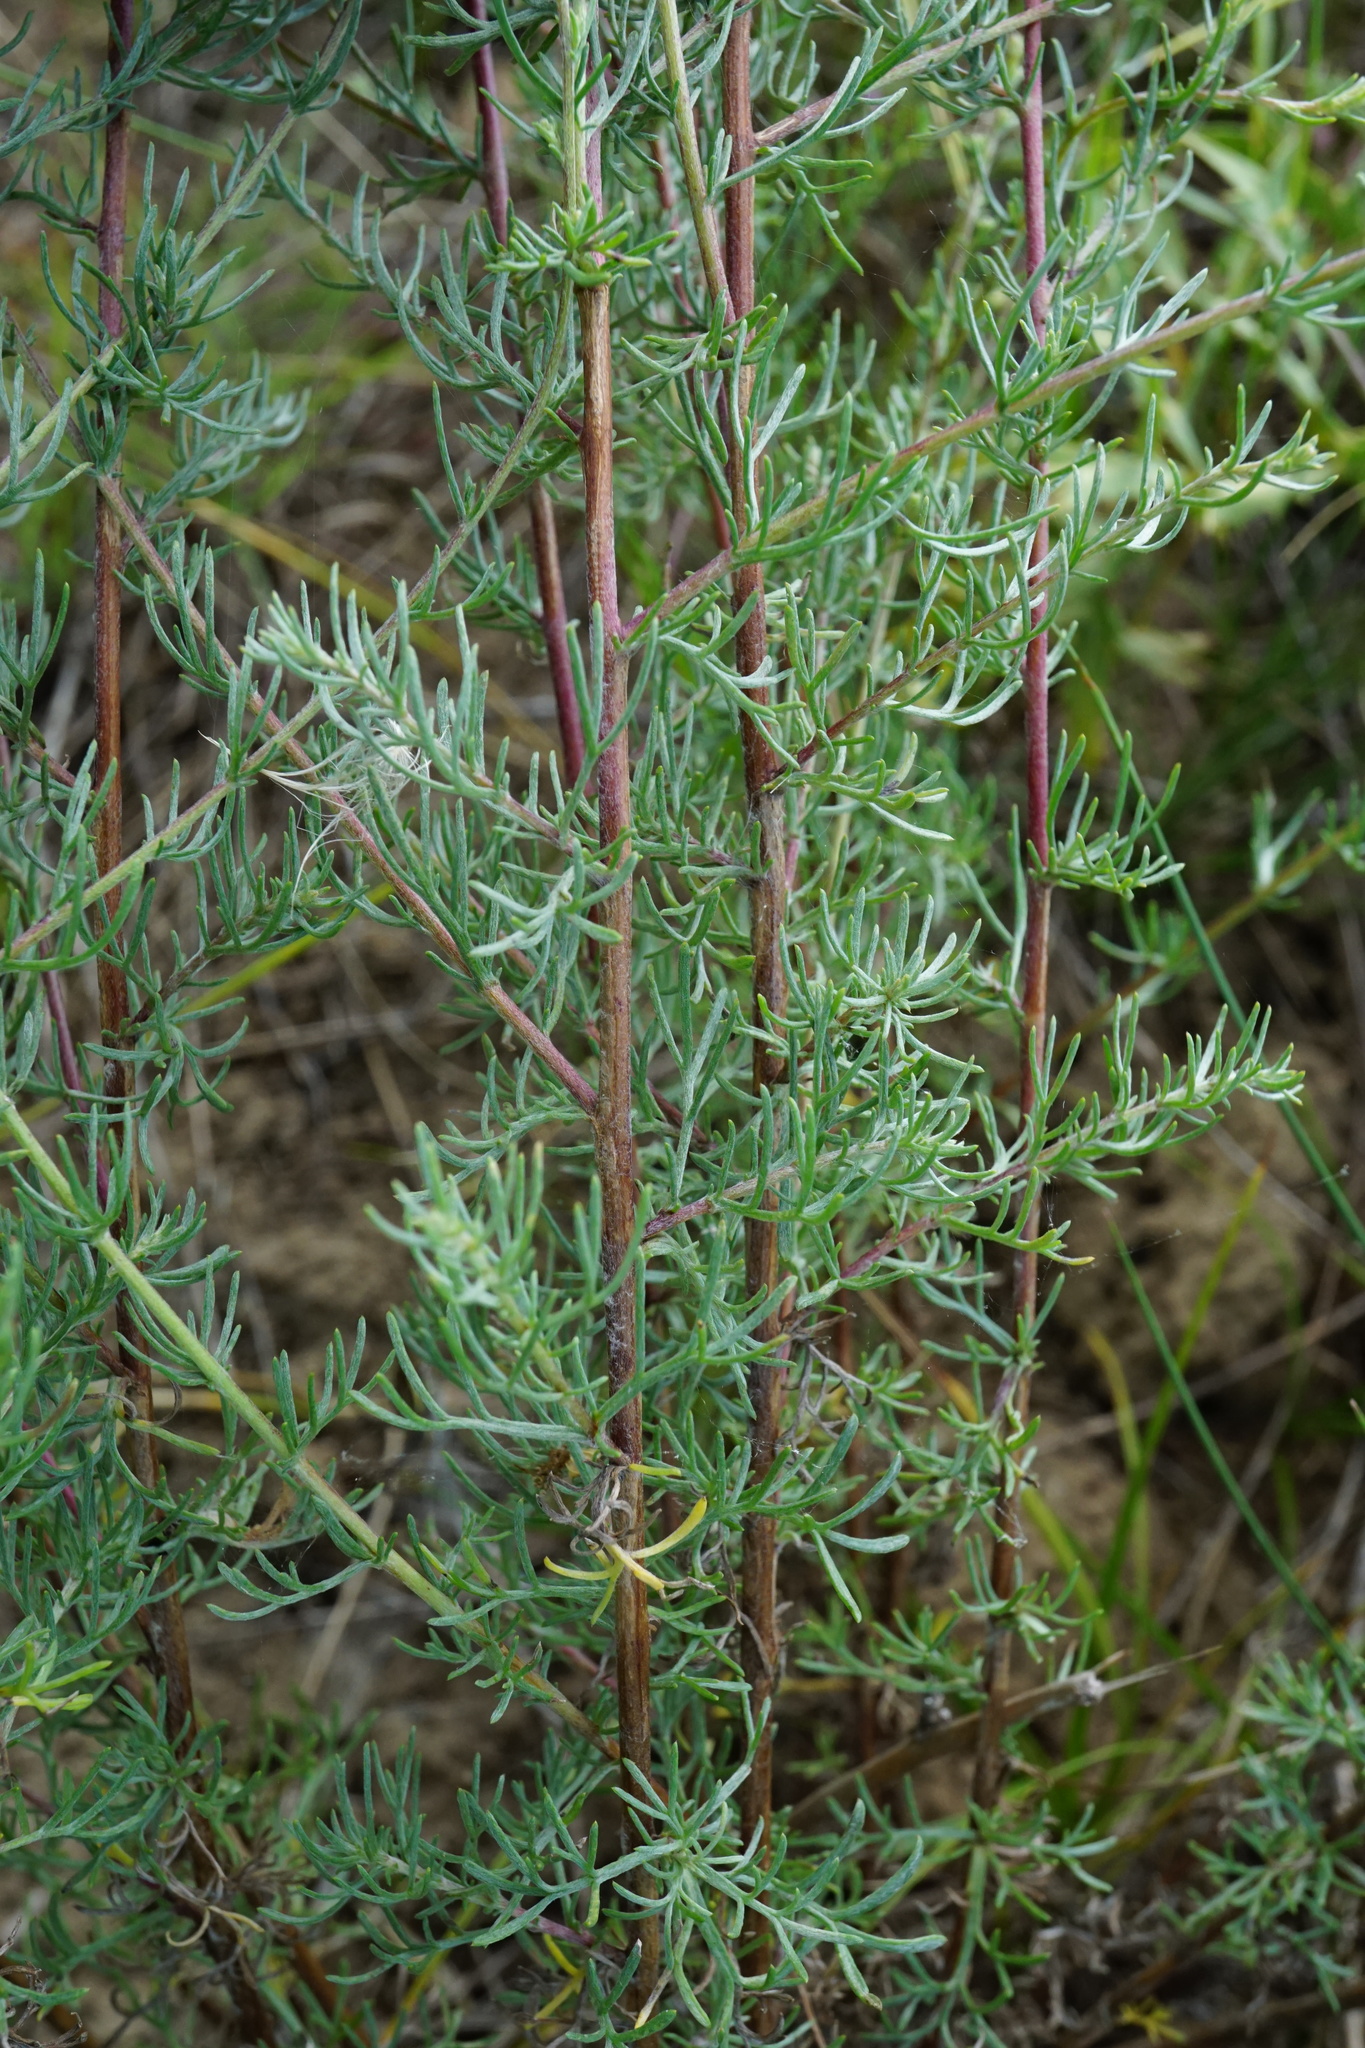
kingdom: Plantae
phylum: Tracheophyta
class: Magnoliopsida
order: Asterales
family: Asteraceae
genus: Artemisia
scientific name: Artemisia campestris
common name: Field wormwood
